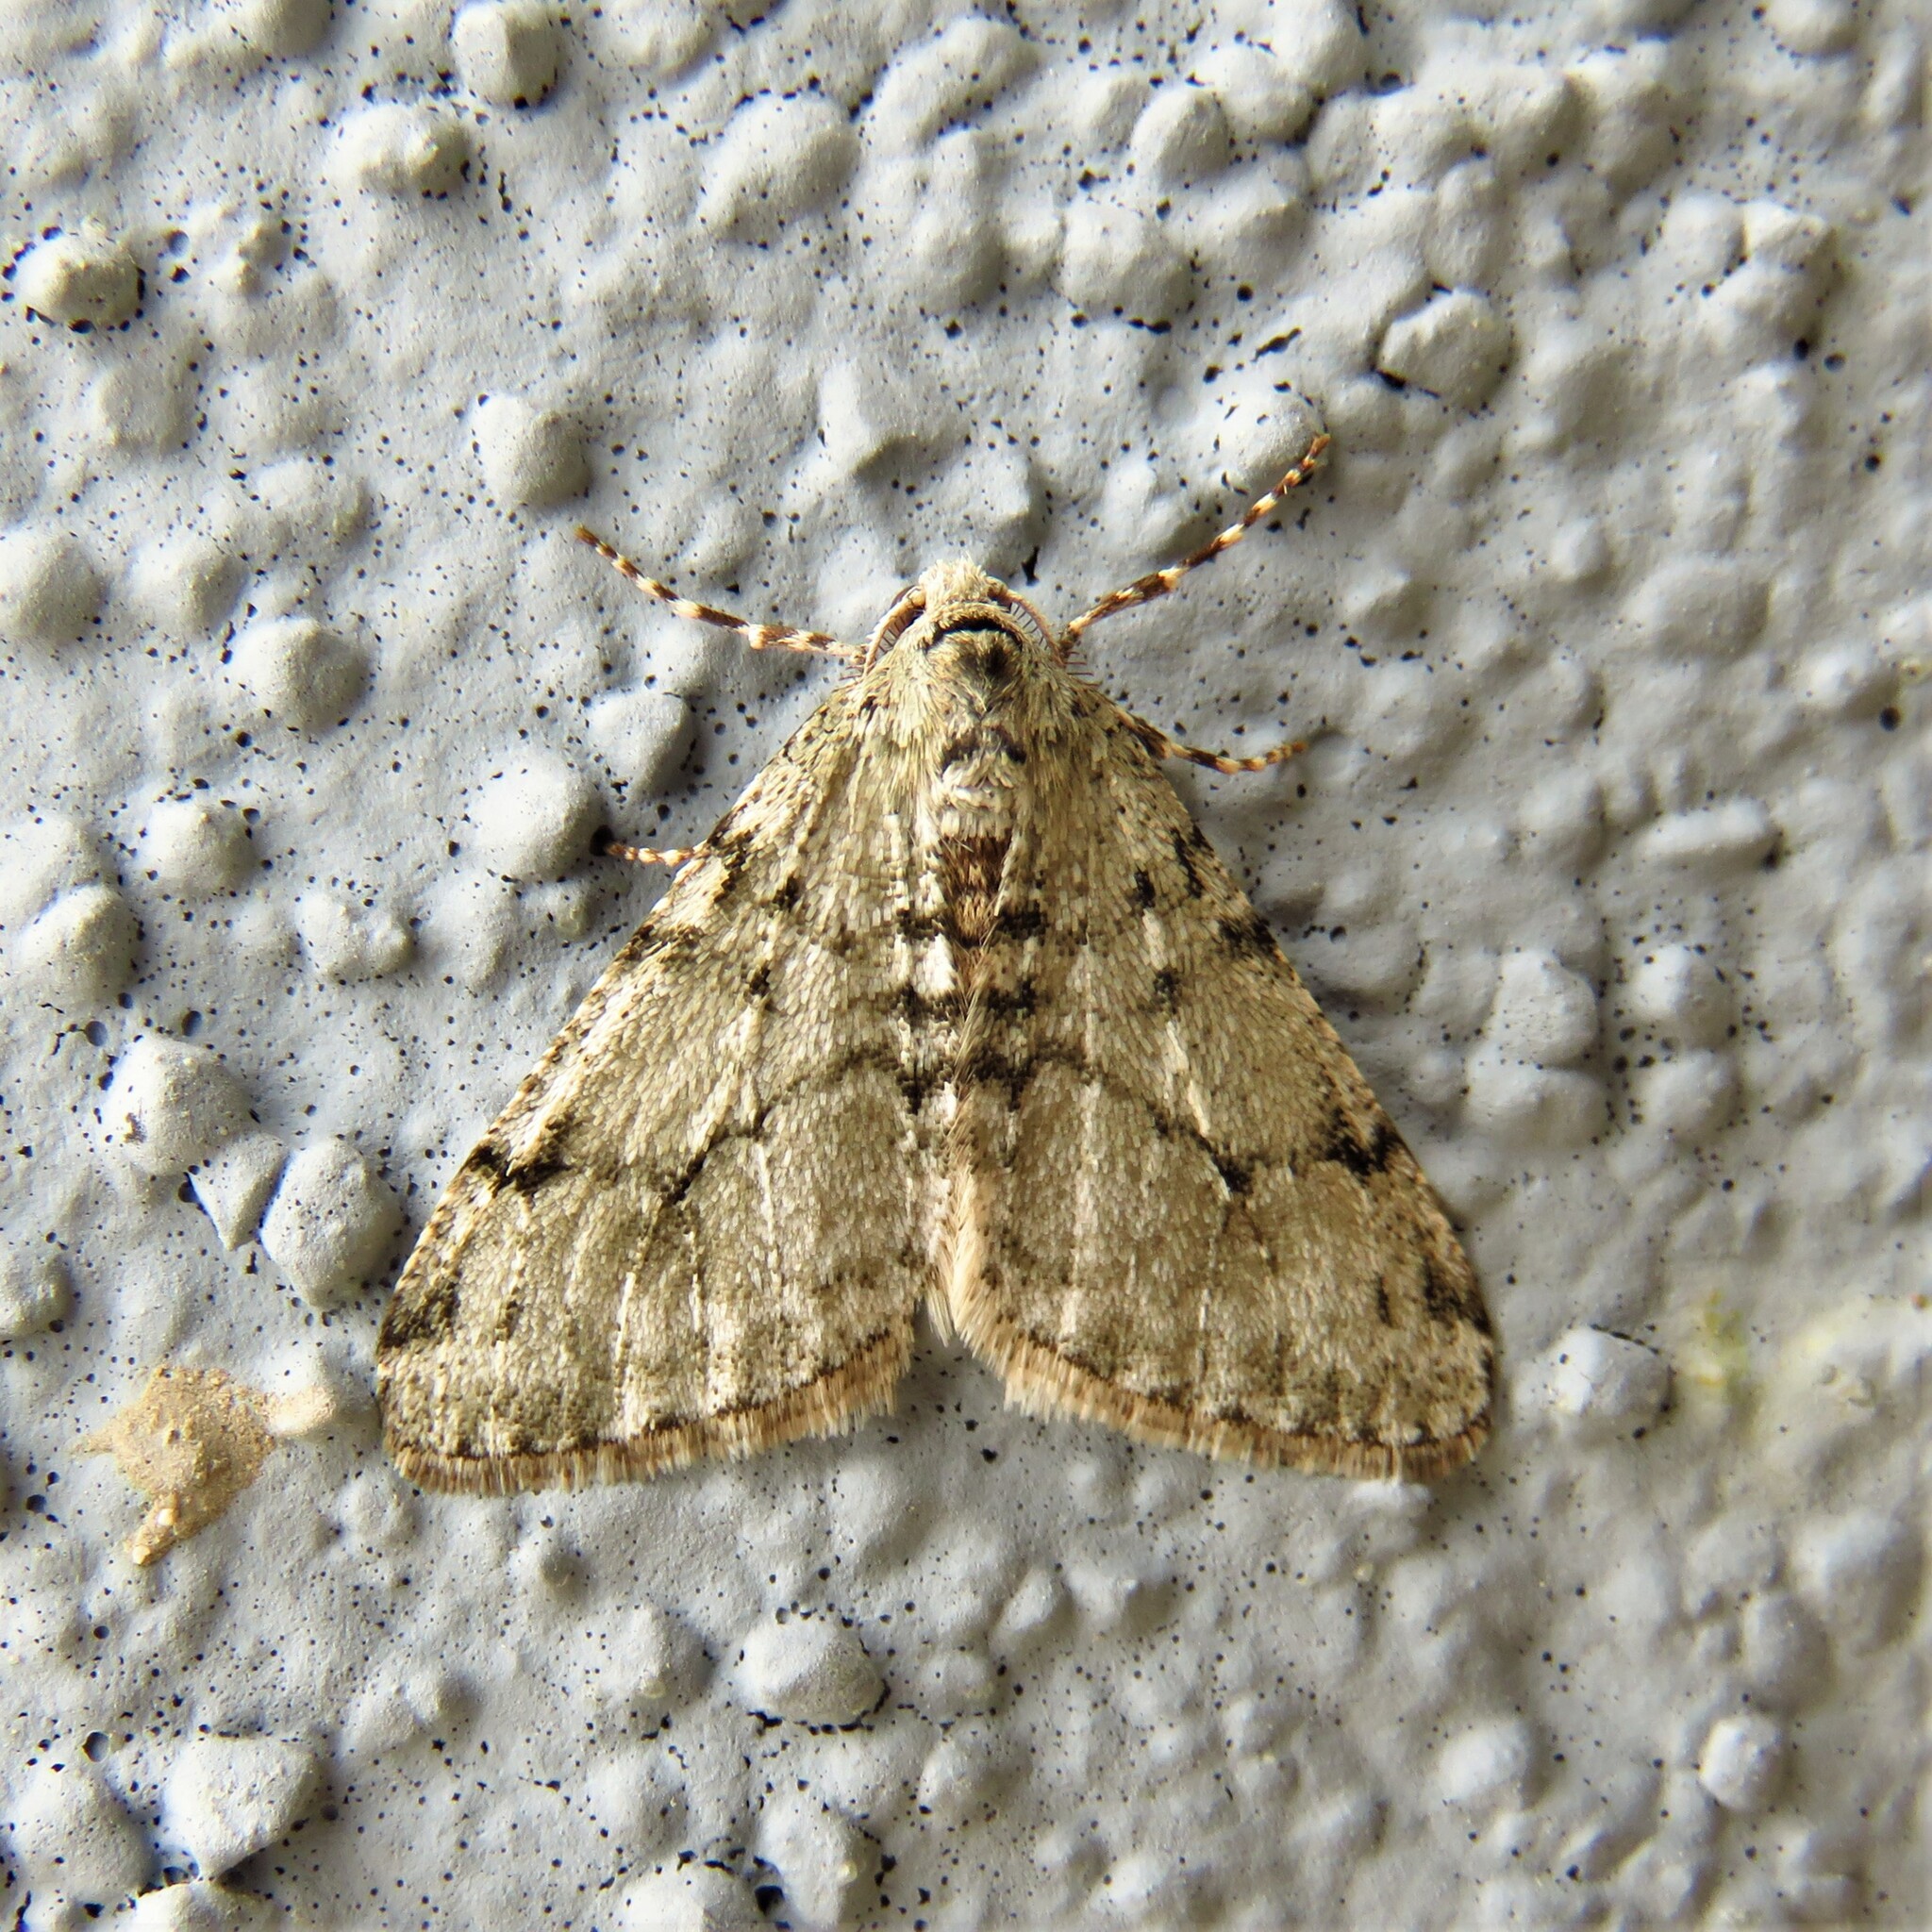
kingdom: Animalia
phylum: Arthropoda
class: Insecta
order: Lepidoptera
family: Geometridae
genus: Phigalia
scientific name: Phigalia strigataria
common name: Small phigalia
